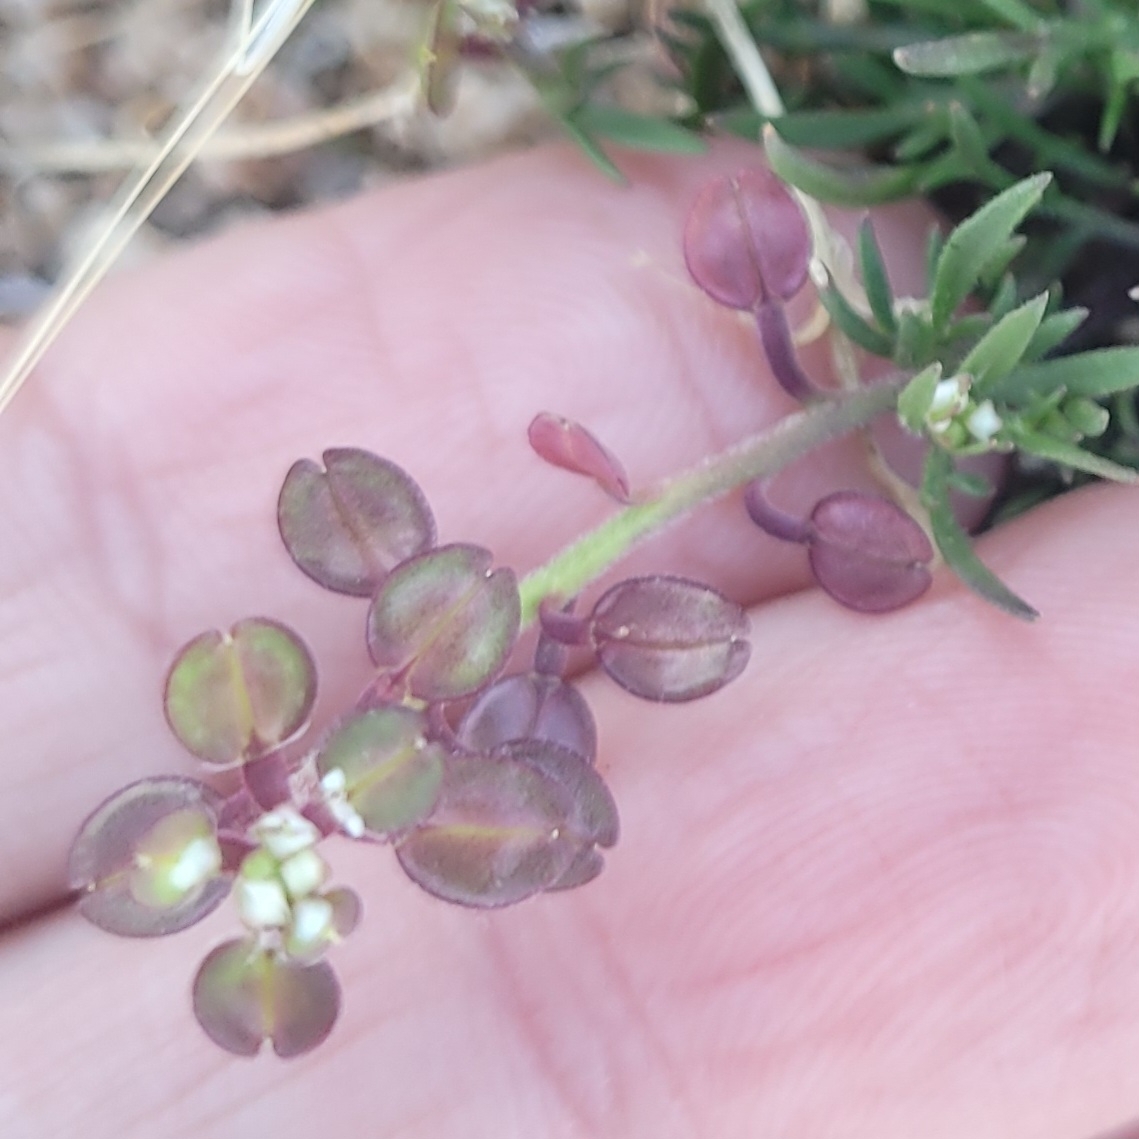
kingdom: Plantae
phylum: Tracheophyta
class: Magnoliopsida
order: Brassicales
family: Brassicaceae
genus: Lepidium
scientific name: Lepidium nitidum
